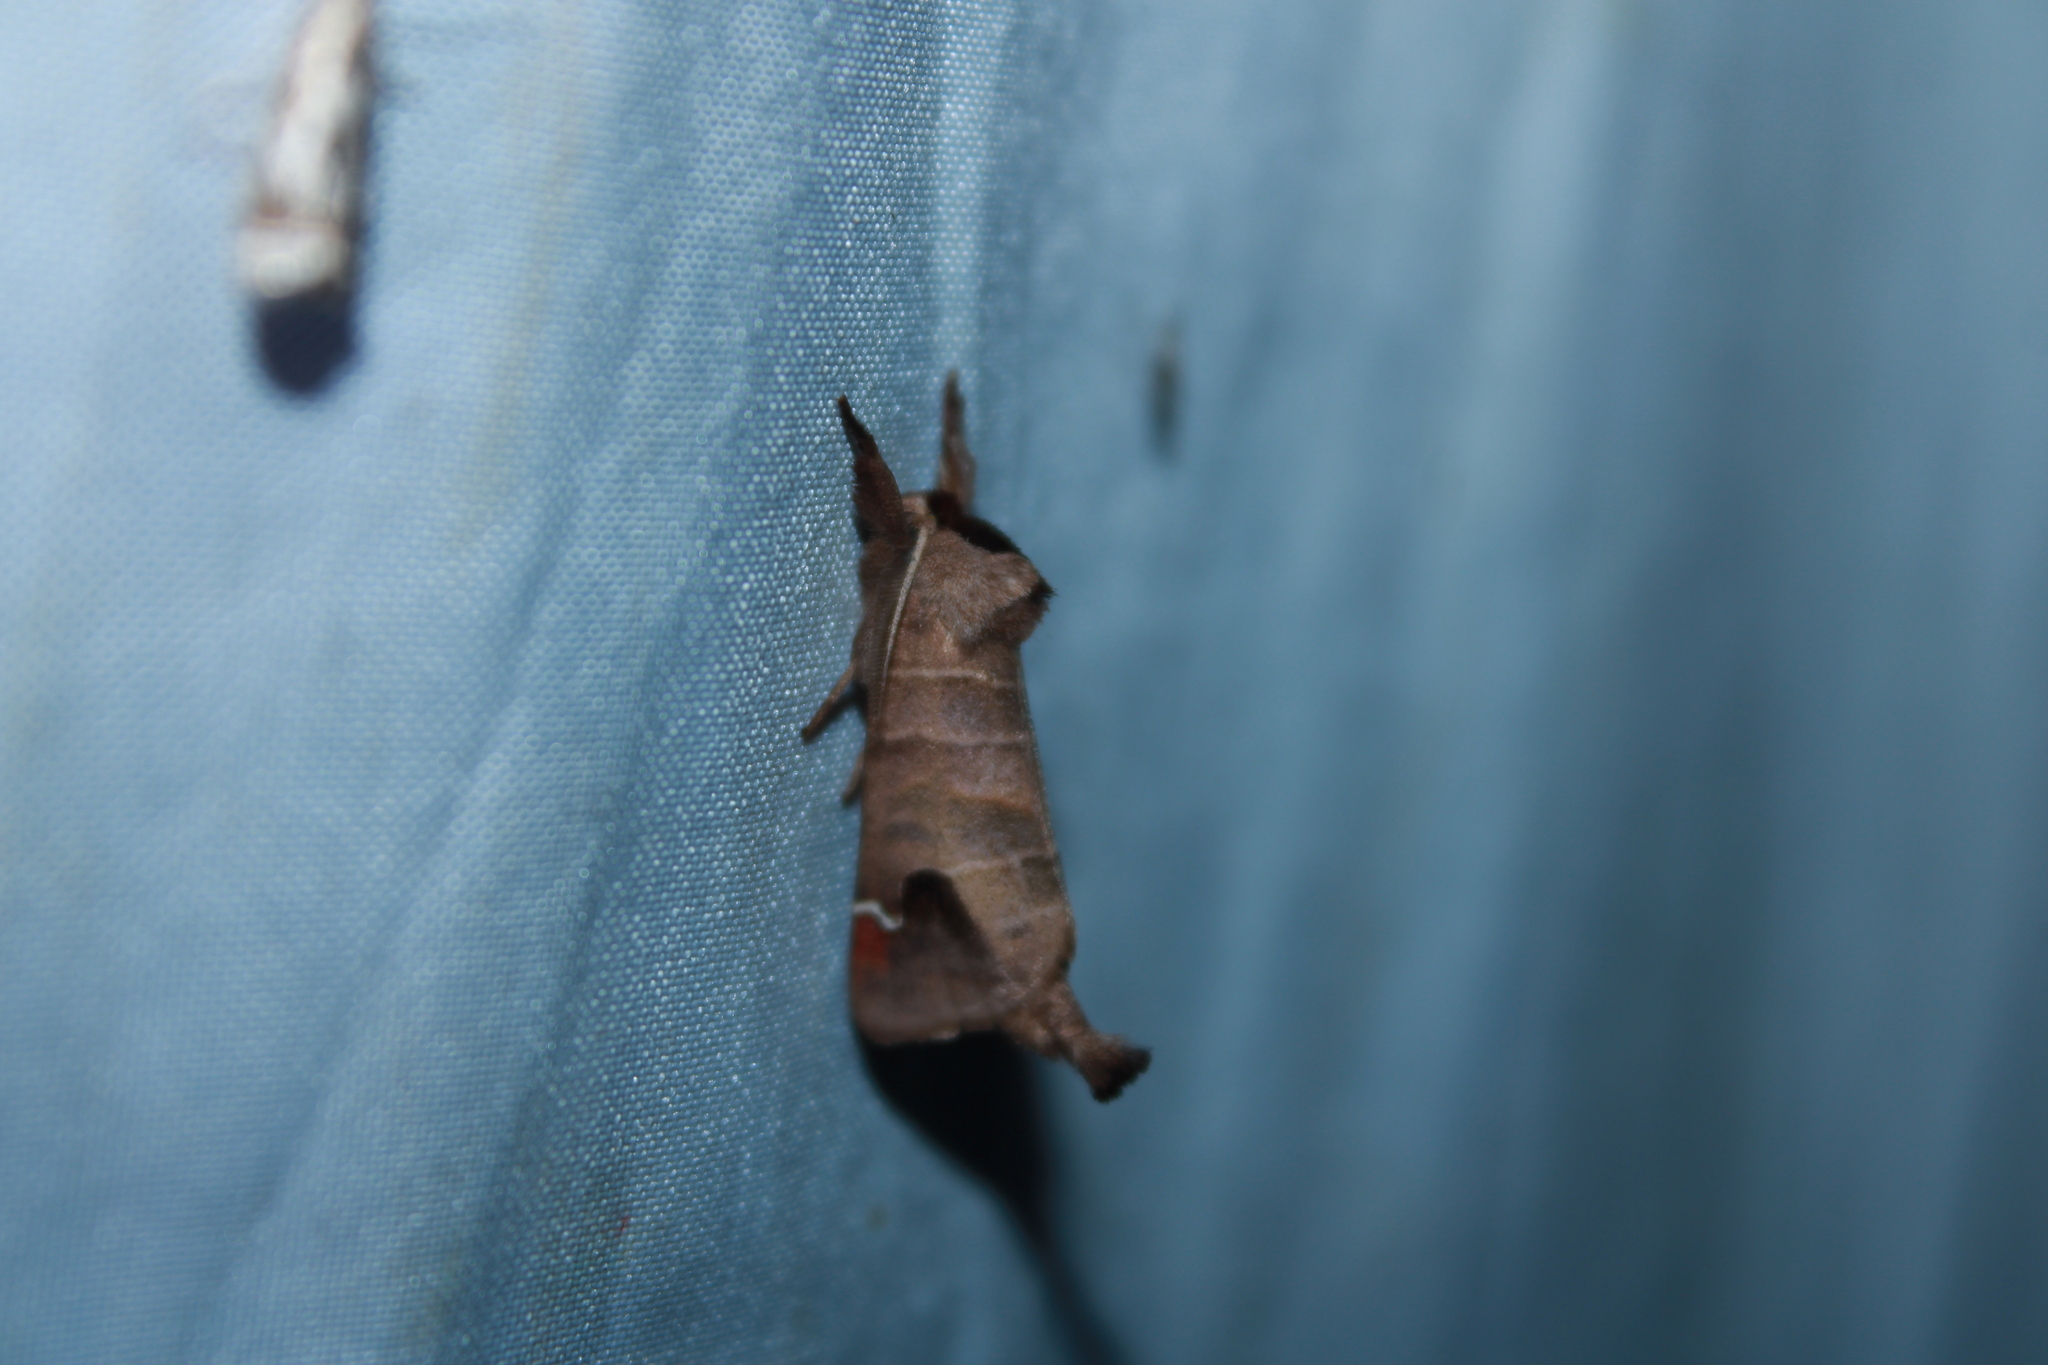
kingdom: Animalia
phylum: Arthropoda
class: Insecta
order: Lepidoptera
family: Notodontidae
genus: Clostera
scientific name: Clostera albosigma
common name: Sigmoid prominent
